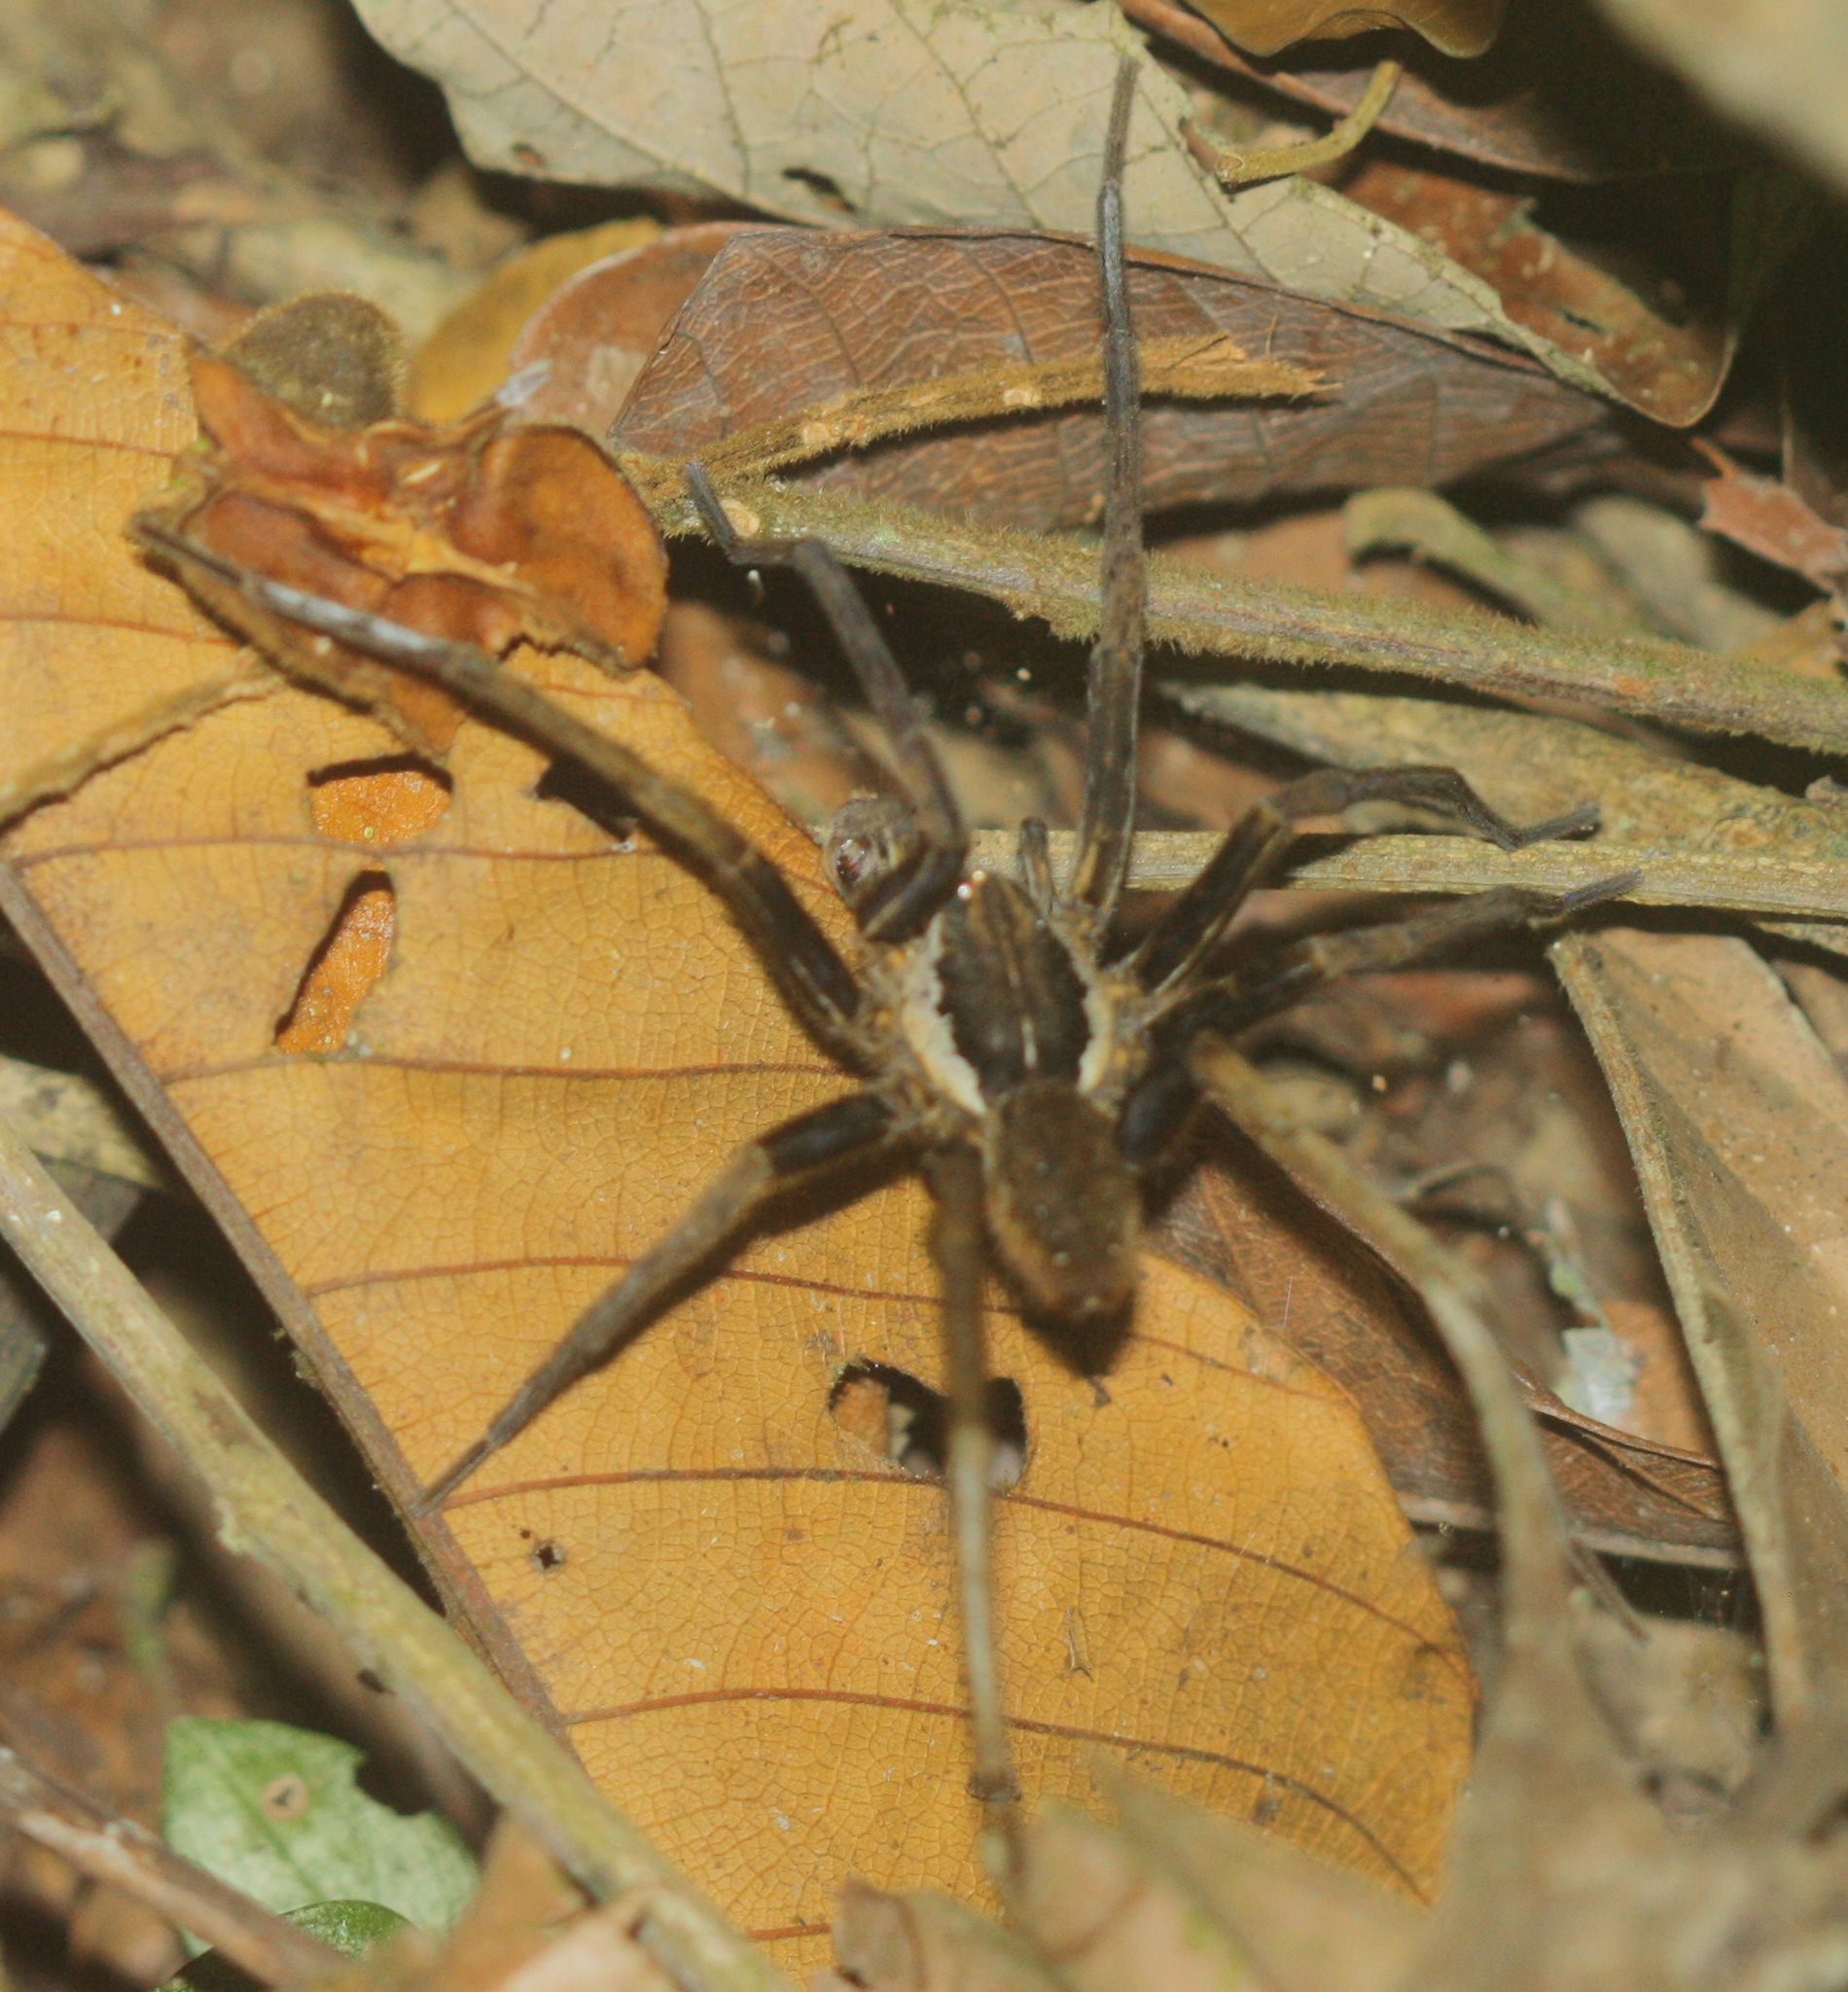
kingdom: Animalia
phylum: Arthropoda
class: Arachnida
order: Araneae
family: Ctenidae
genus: Ancylometes
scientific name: Ancylometes bogotensis
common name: Wandering spiders
